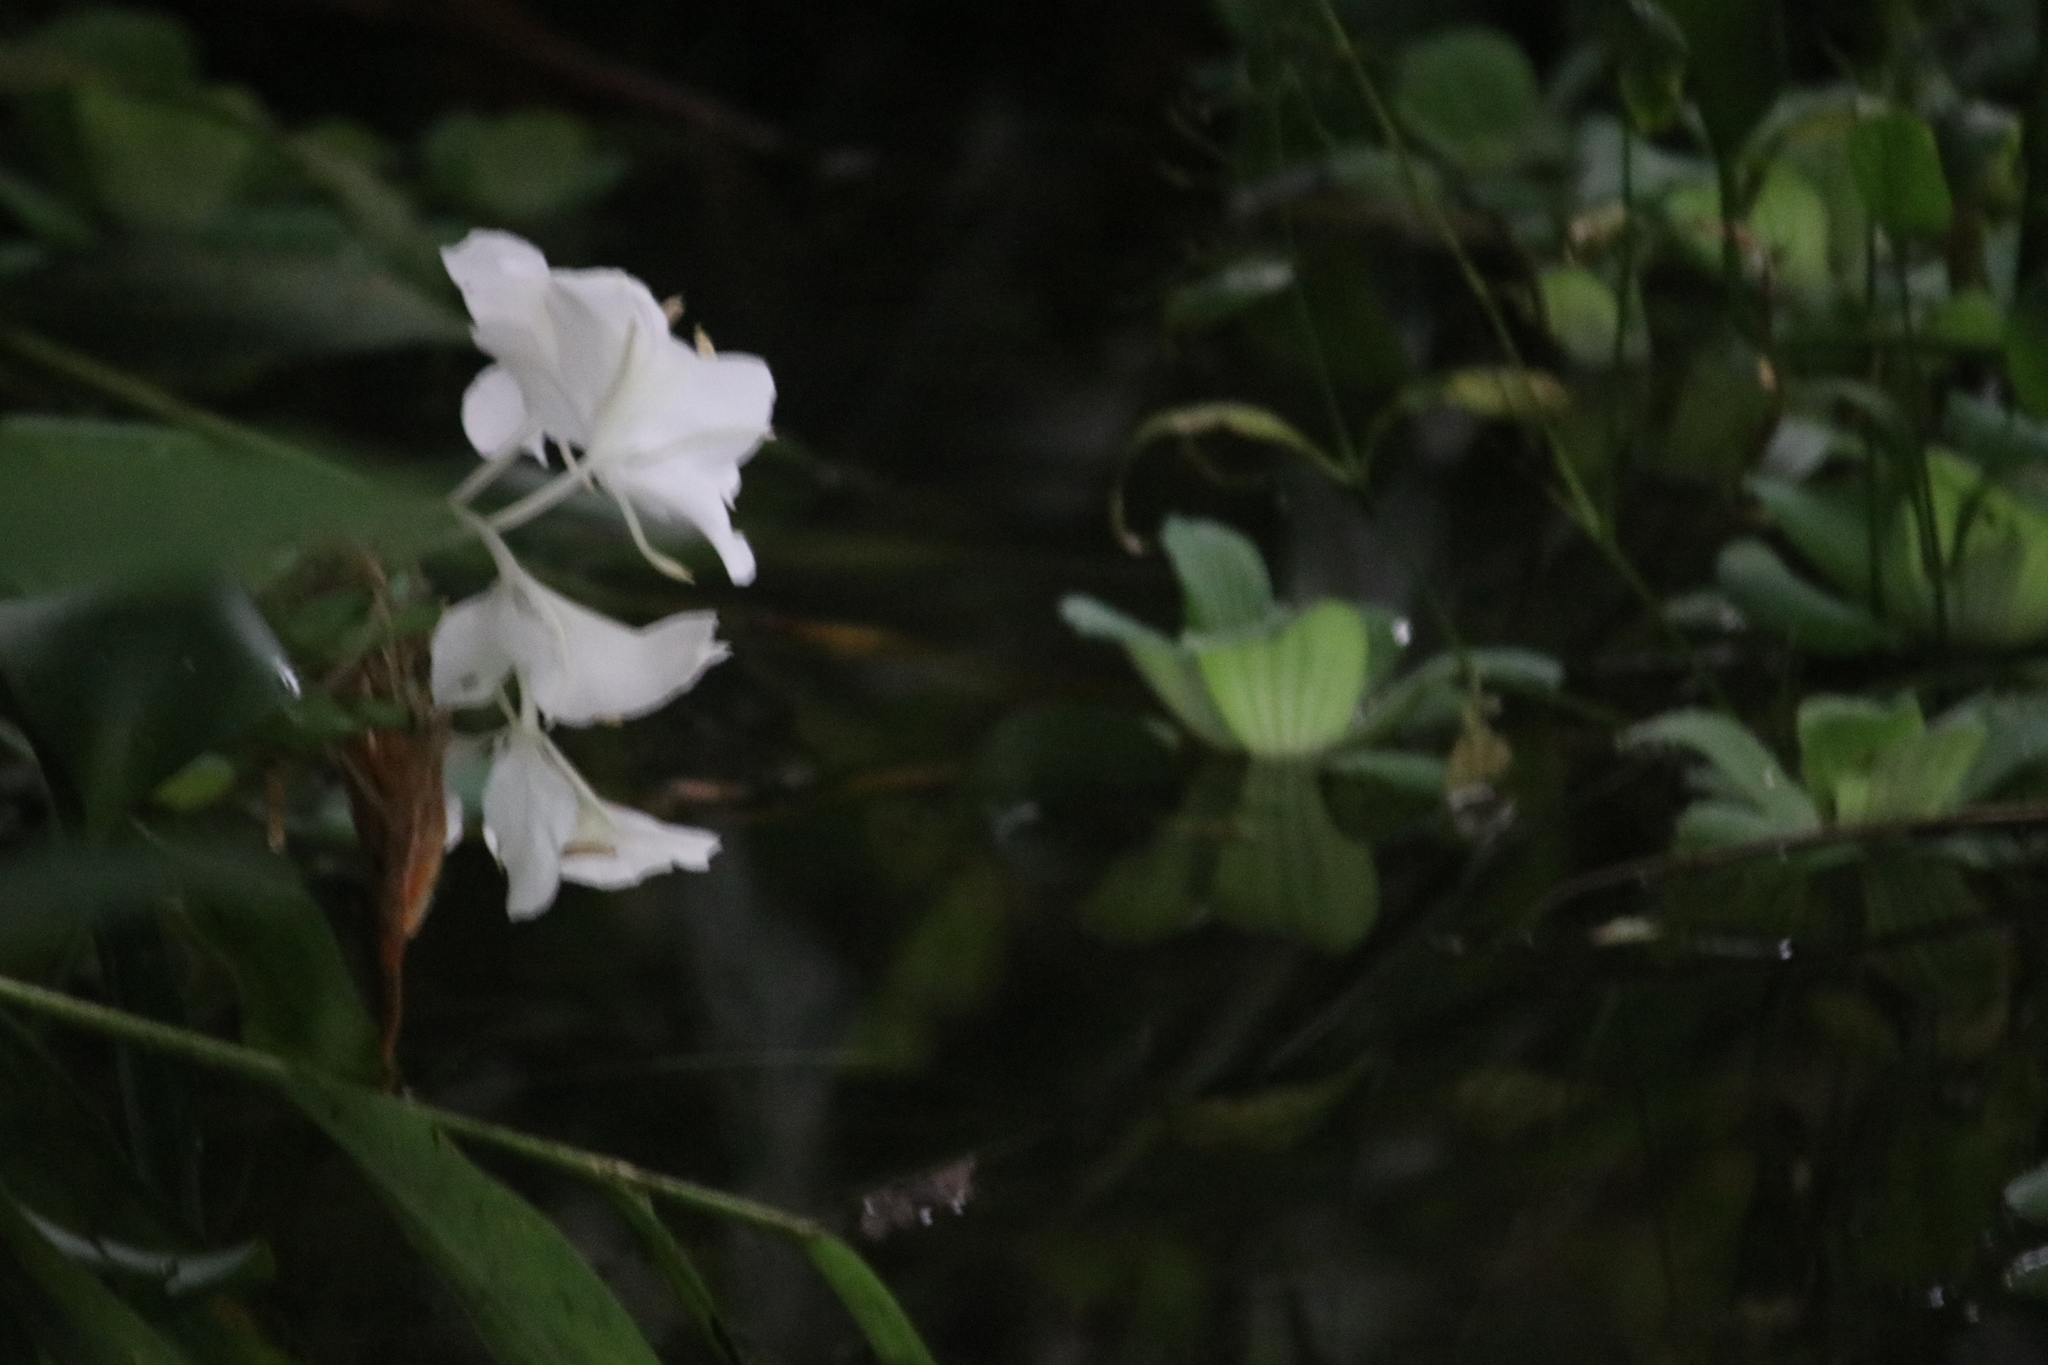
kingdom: Plantae
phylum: Tracheophyta
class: Liliopsida
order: Zingiberales
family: Zingiberaceae
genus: Hedychium
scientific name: Hedychium coronarium
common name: White garland-lily
